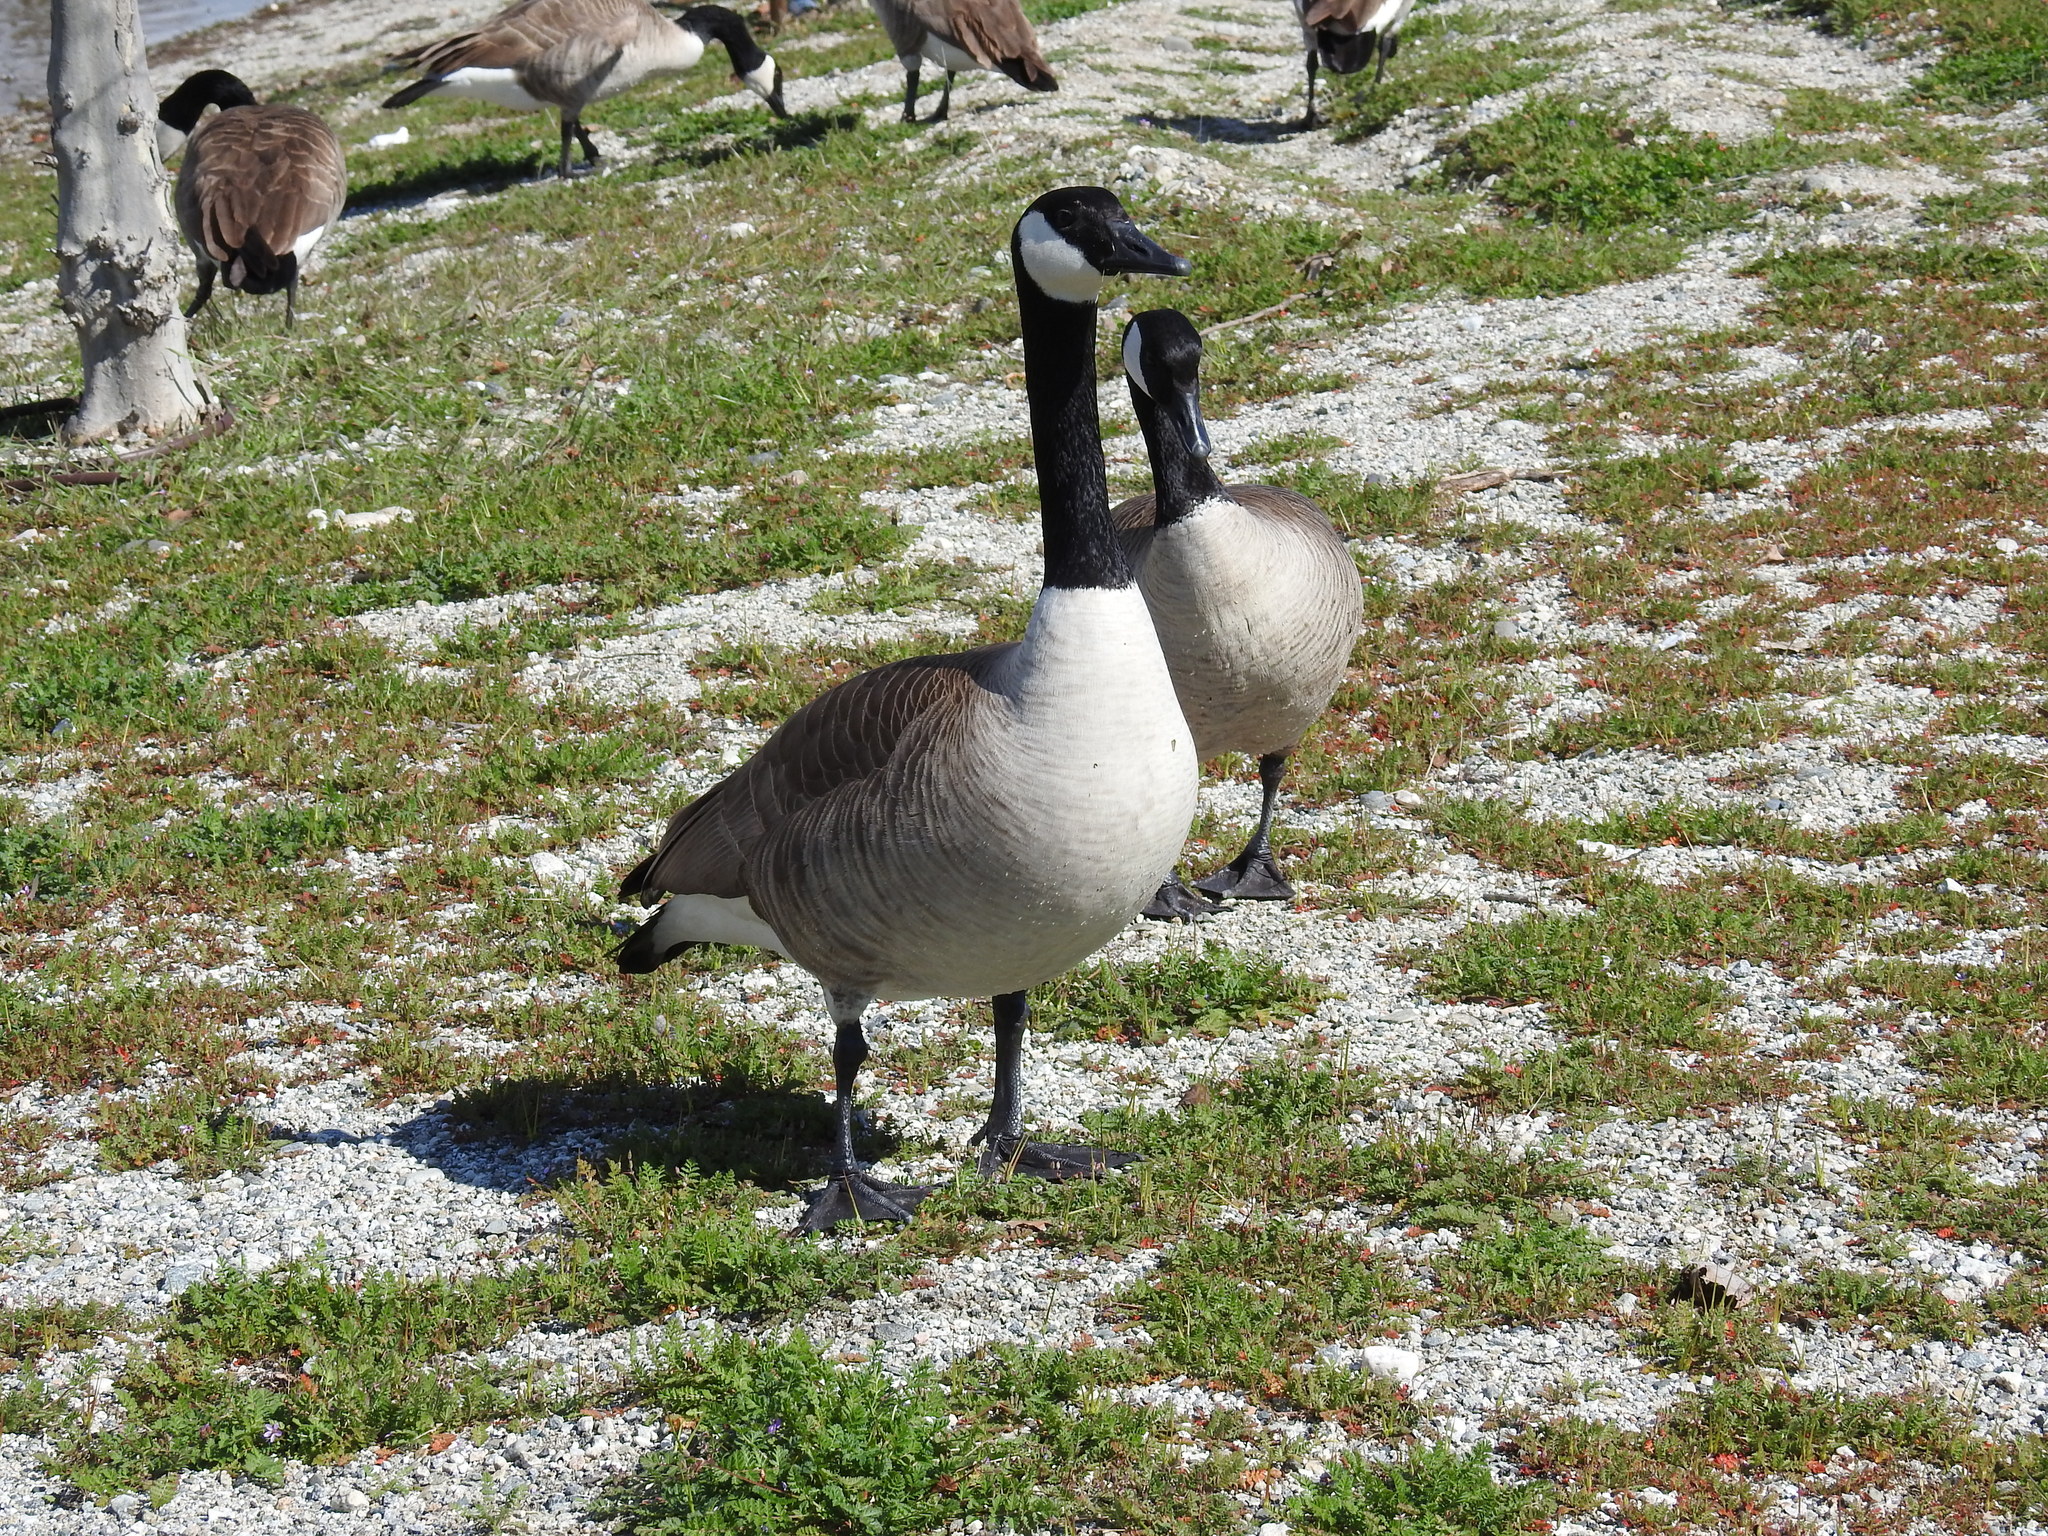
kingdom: Animalia
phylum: Chordata
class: Aves
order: Anseriformes
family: Anatidae
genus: Branta
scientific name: Branta canadensis
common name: Canada goose
